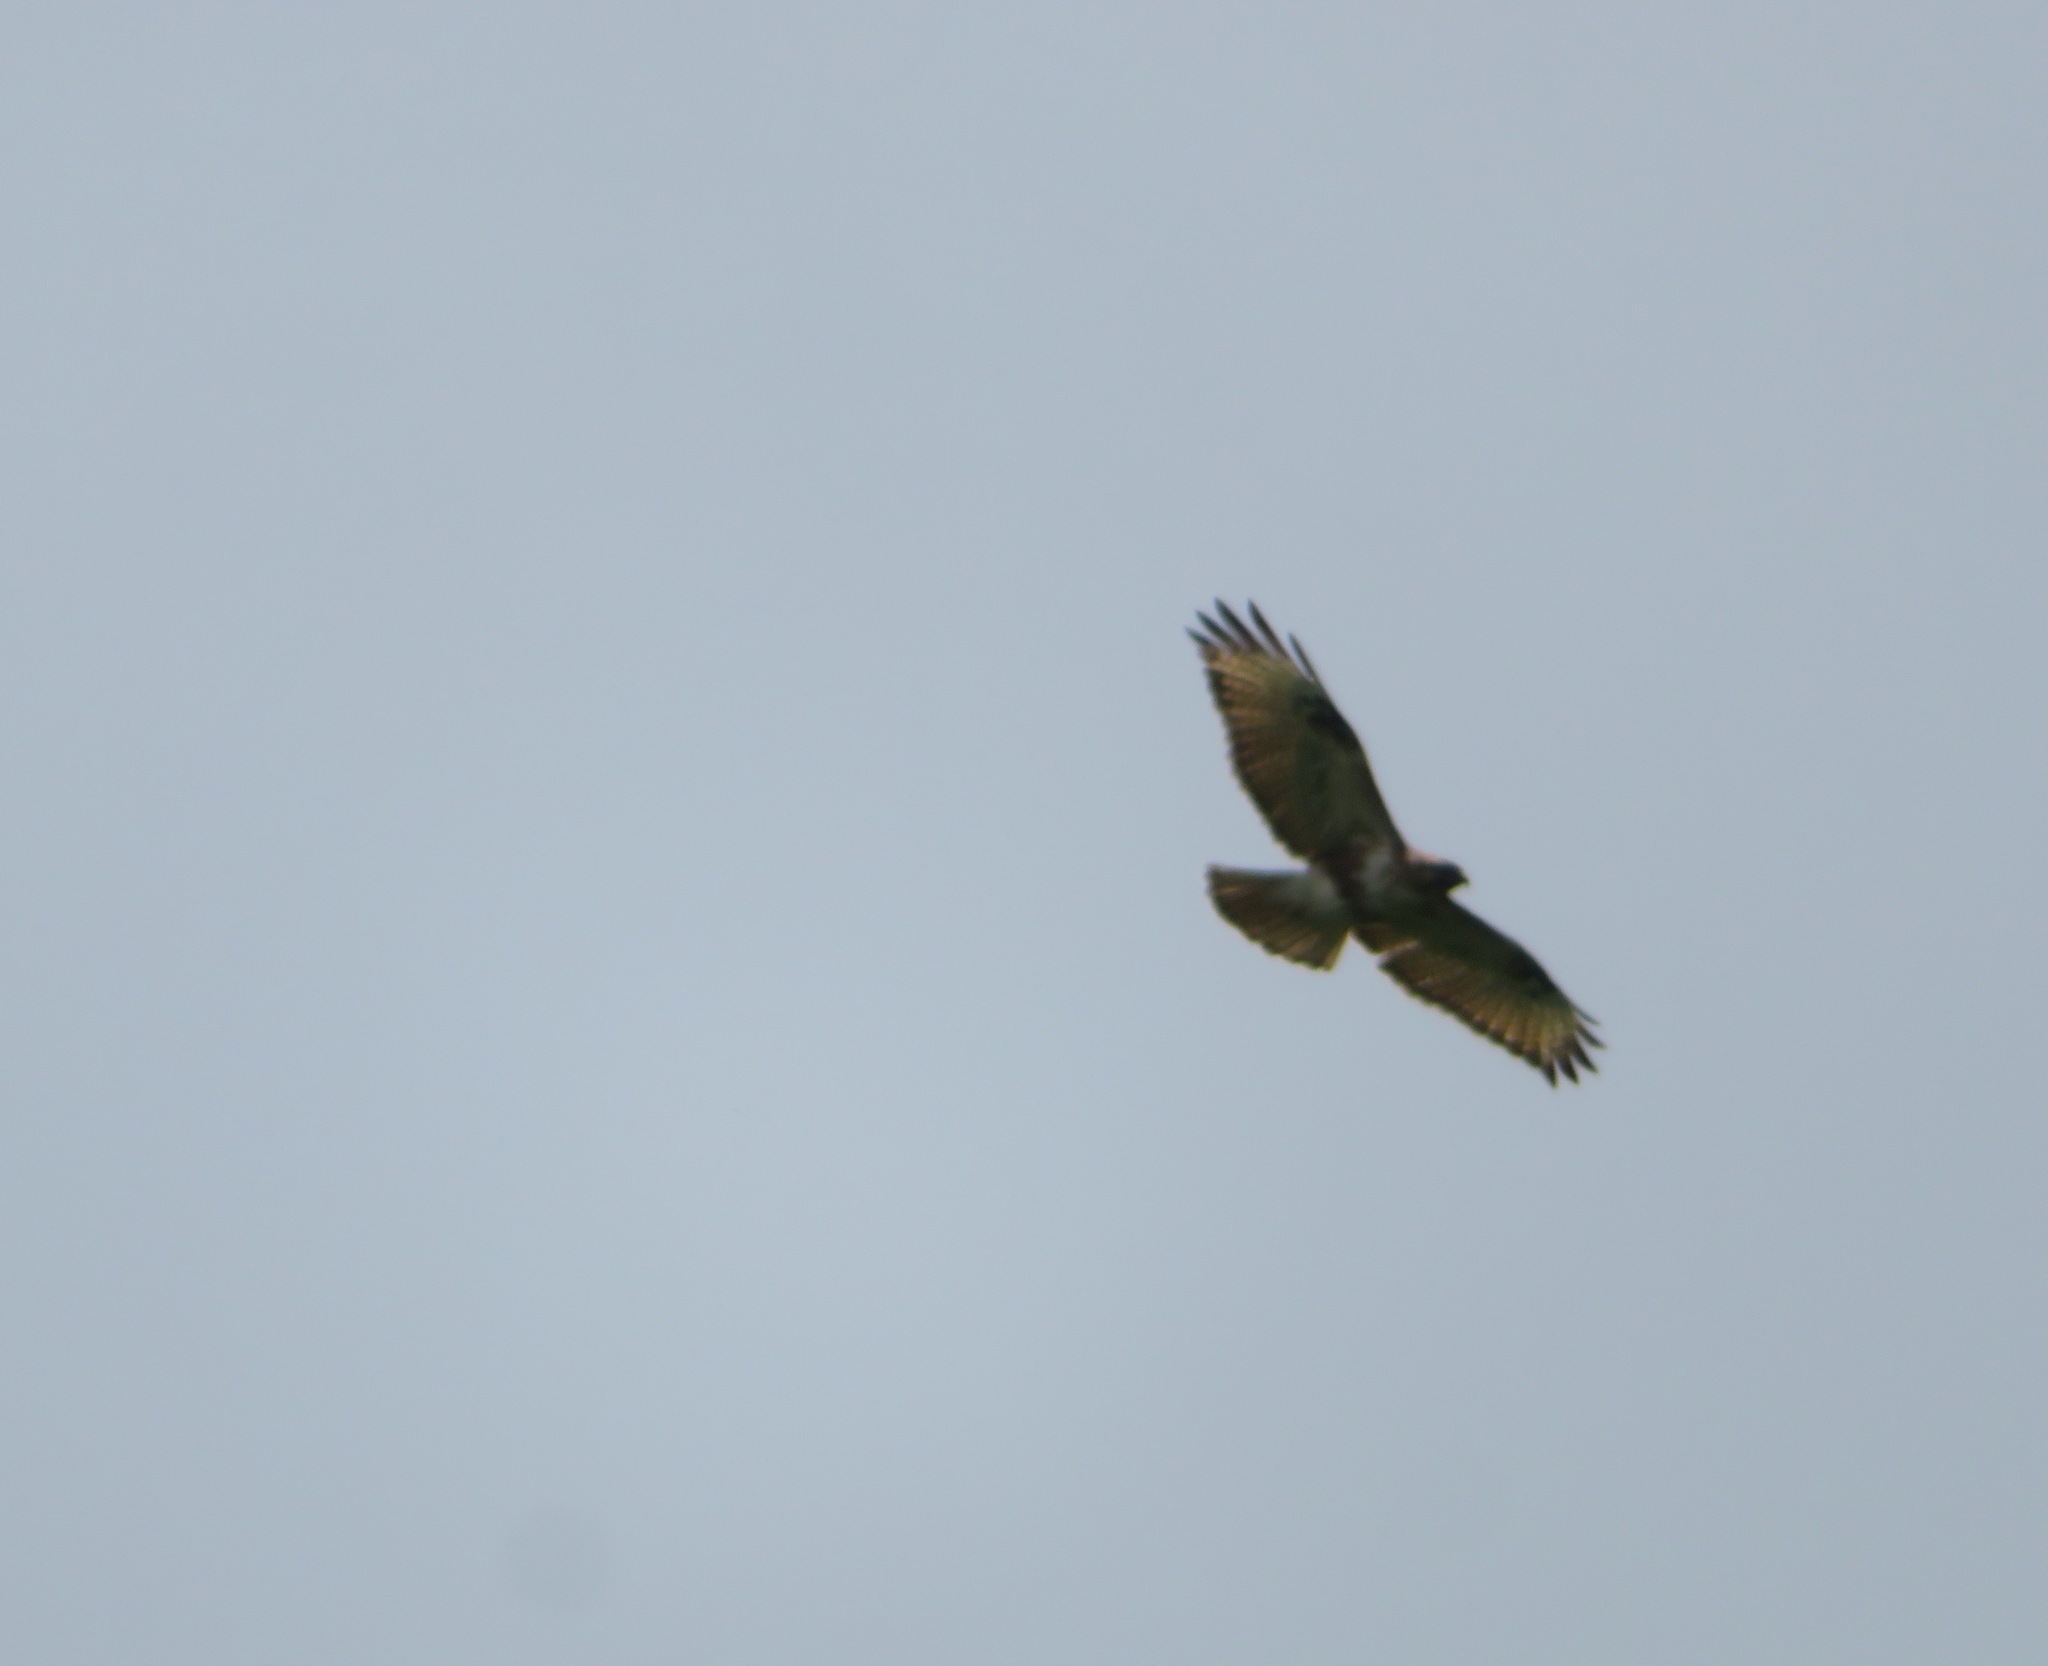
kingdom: Animalia
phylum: Chordata
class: Aves
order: Accipitriformes
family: Accipitridae
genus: Buteo
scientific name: Buteo japonicus
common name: Eastern buzzard
